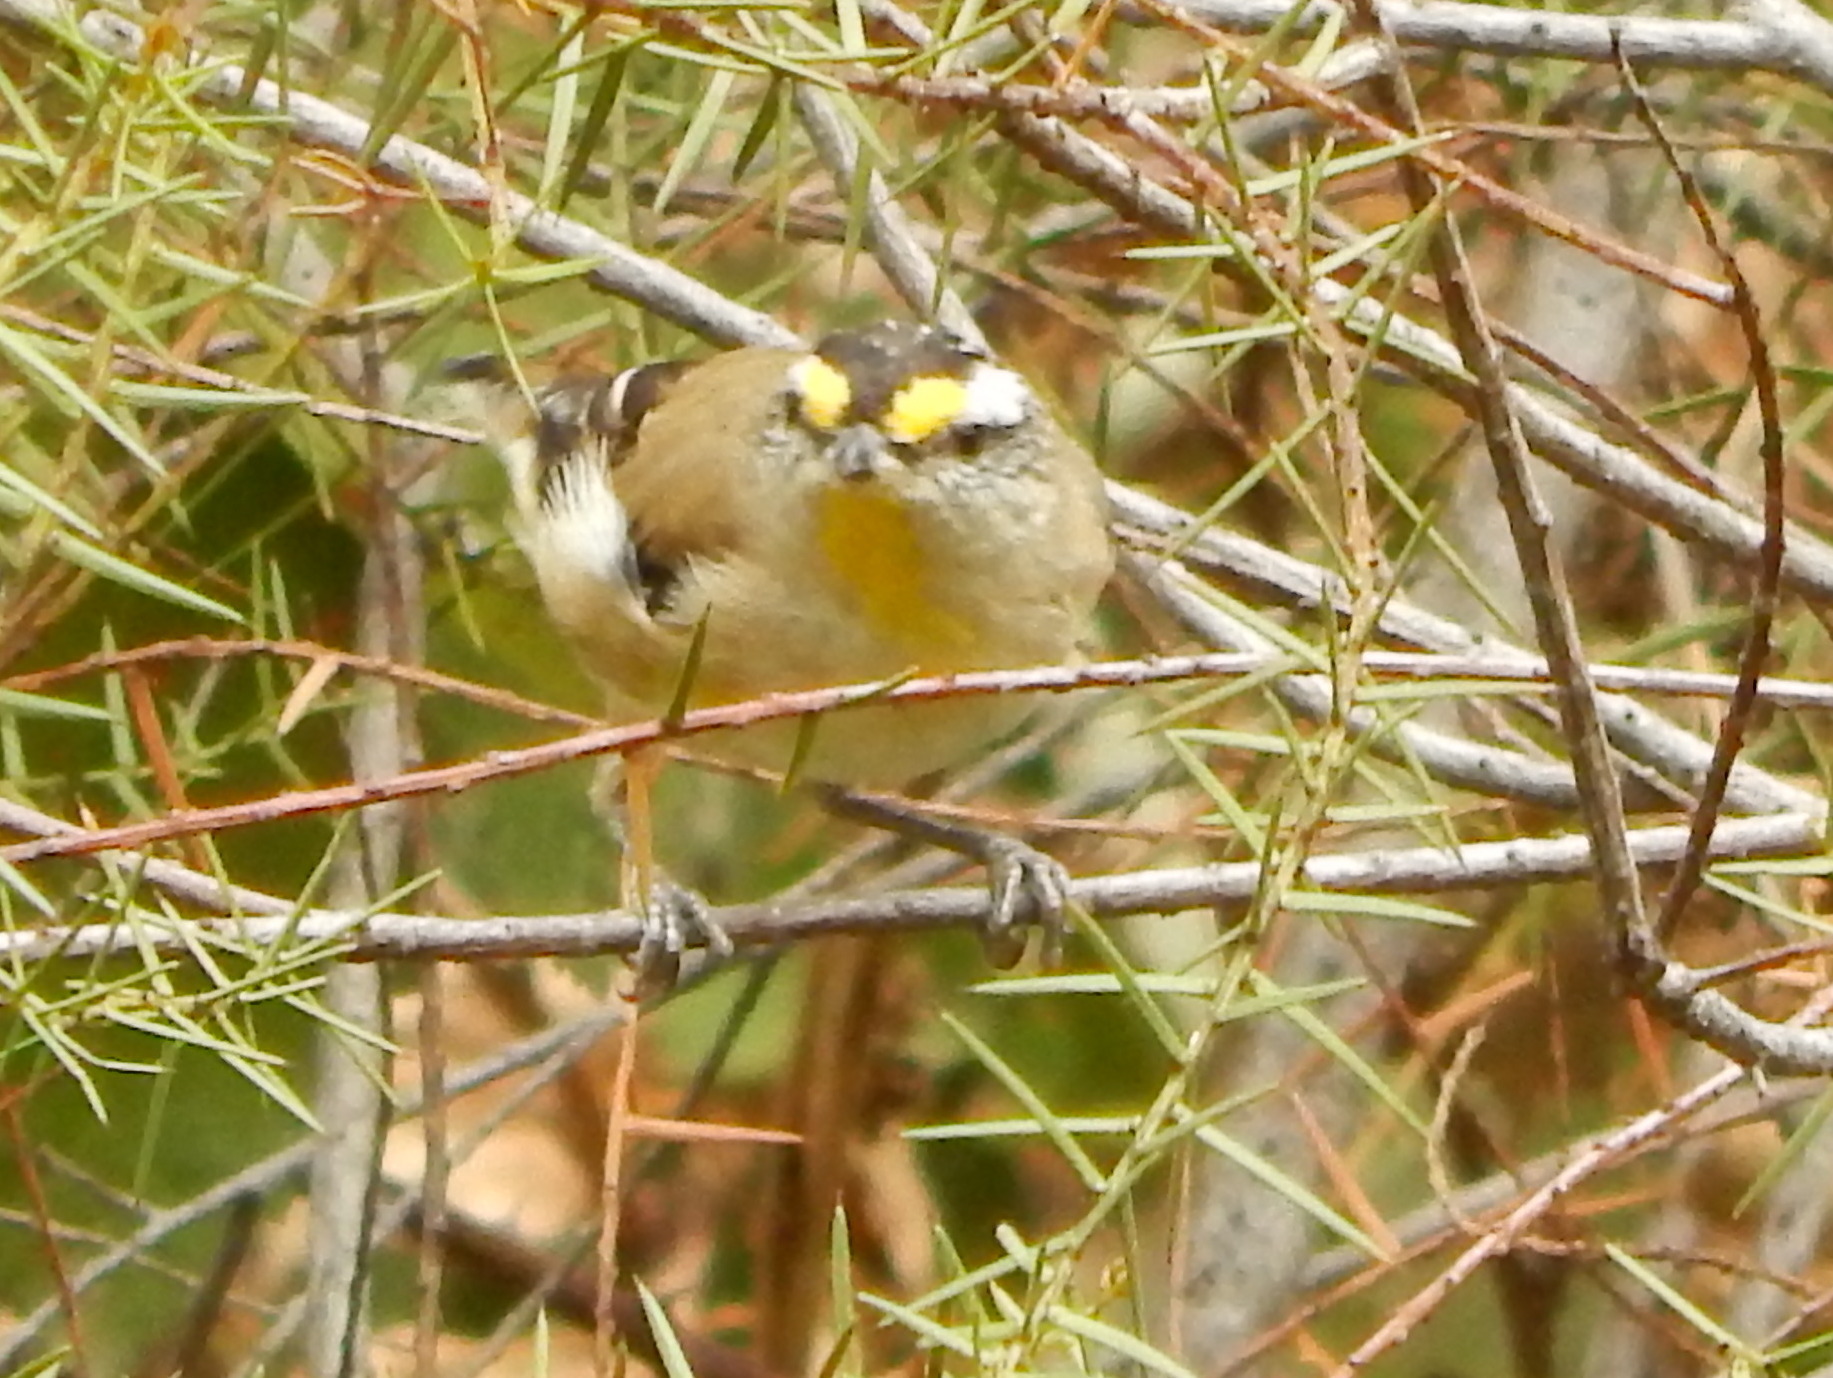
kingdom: Animalia
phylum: Chordata
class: Aves
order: Passeriformes
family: Pardalotidae
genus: Pardalotus
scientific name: Pardalotus striatus
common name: Striated pardalote
